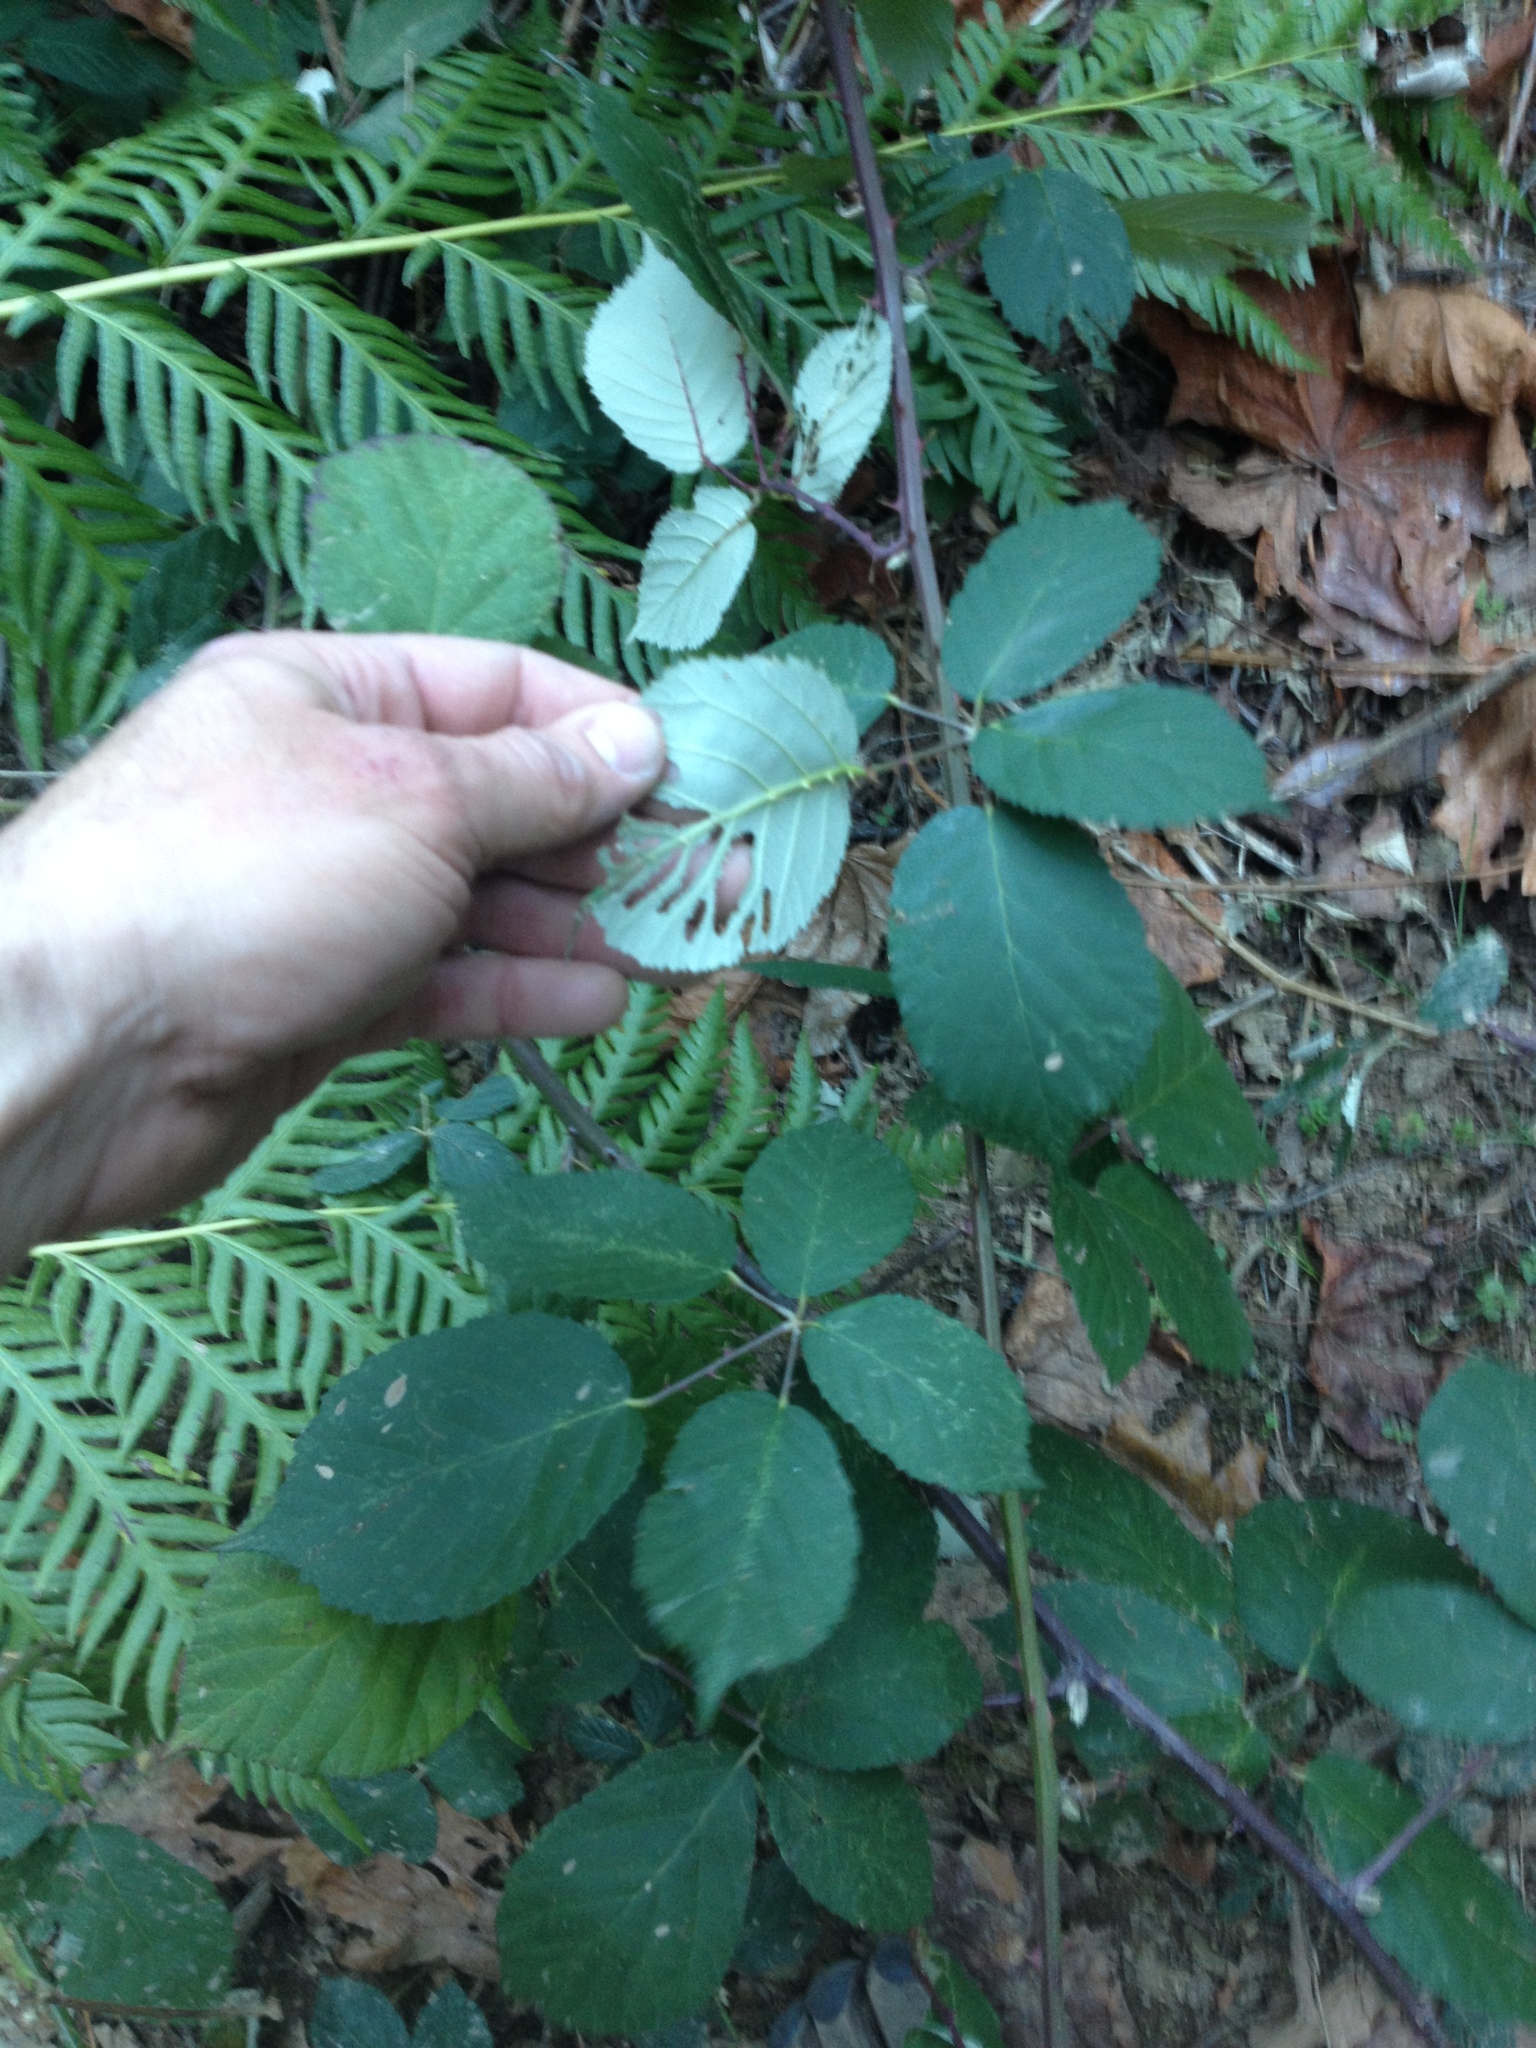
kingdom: Plantae
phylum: Tracheophyta
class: Magnoliopsida
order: Rosales
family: Rosaceae
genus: Rubus
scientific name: Rubus armeniacus
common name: Himalayan blackberry
